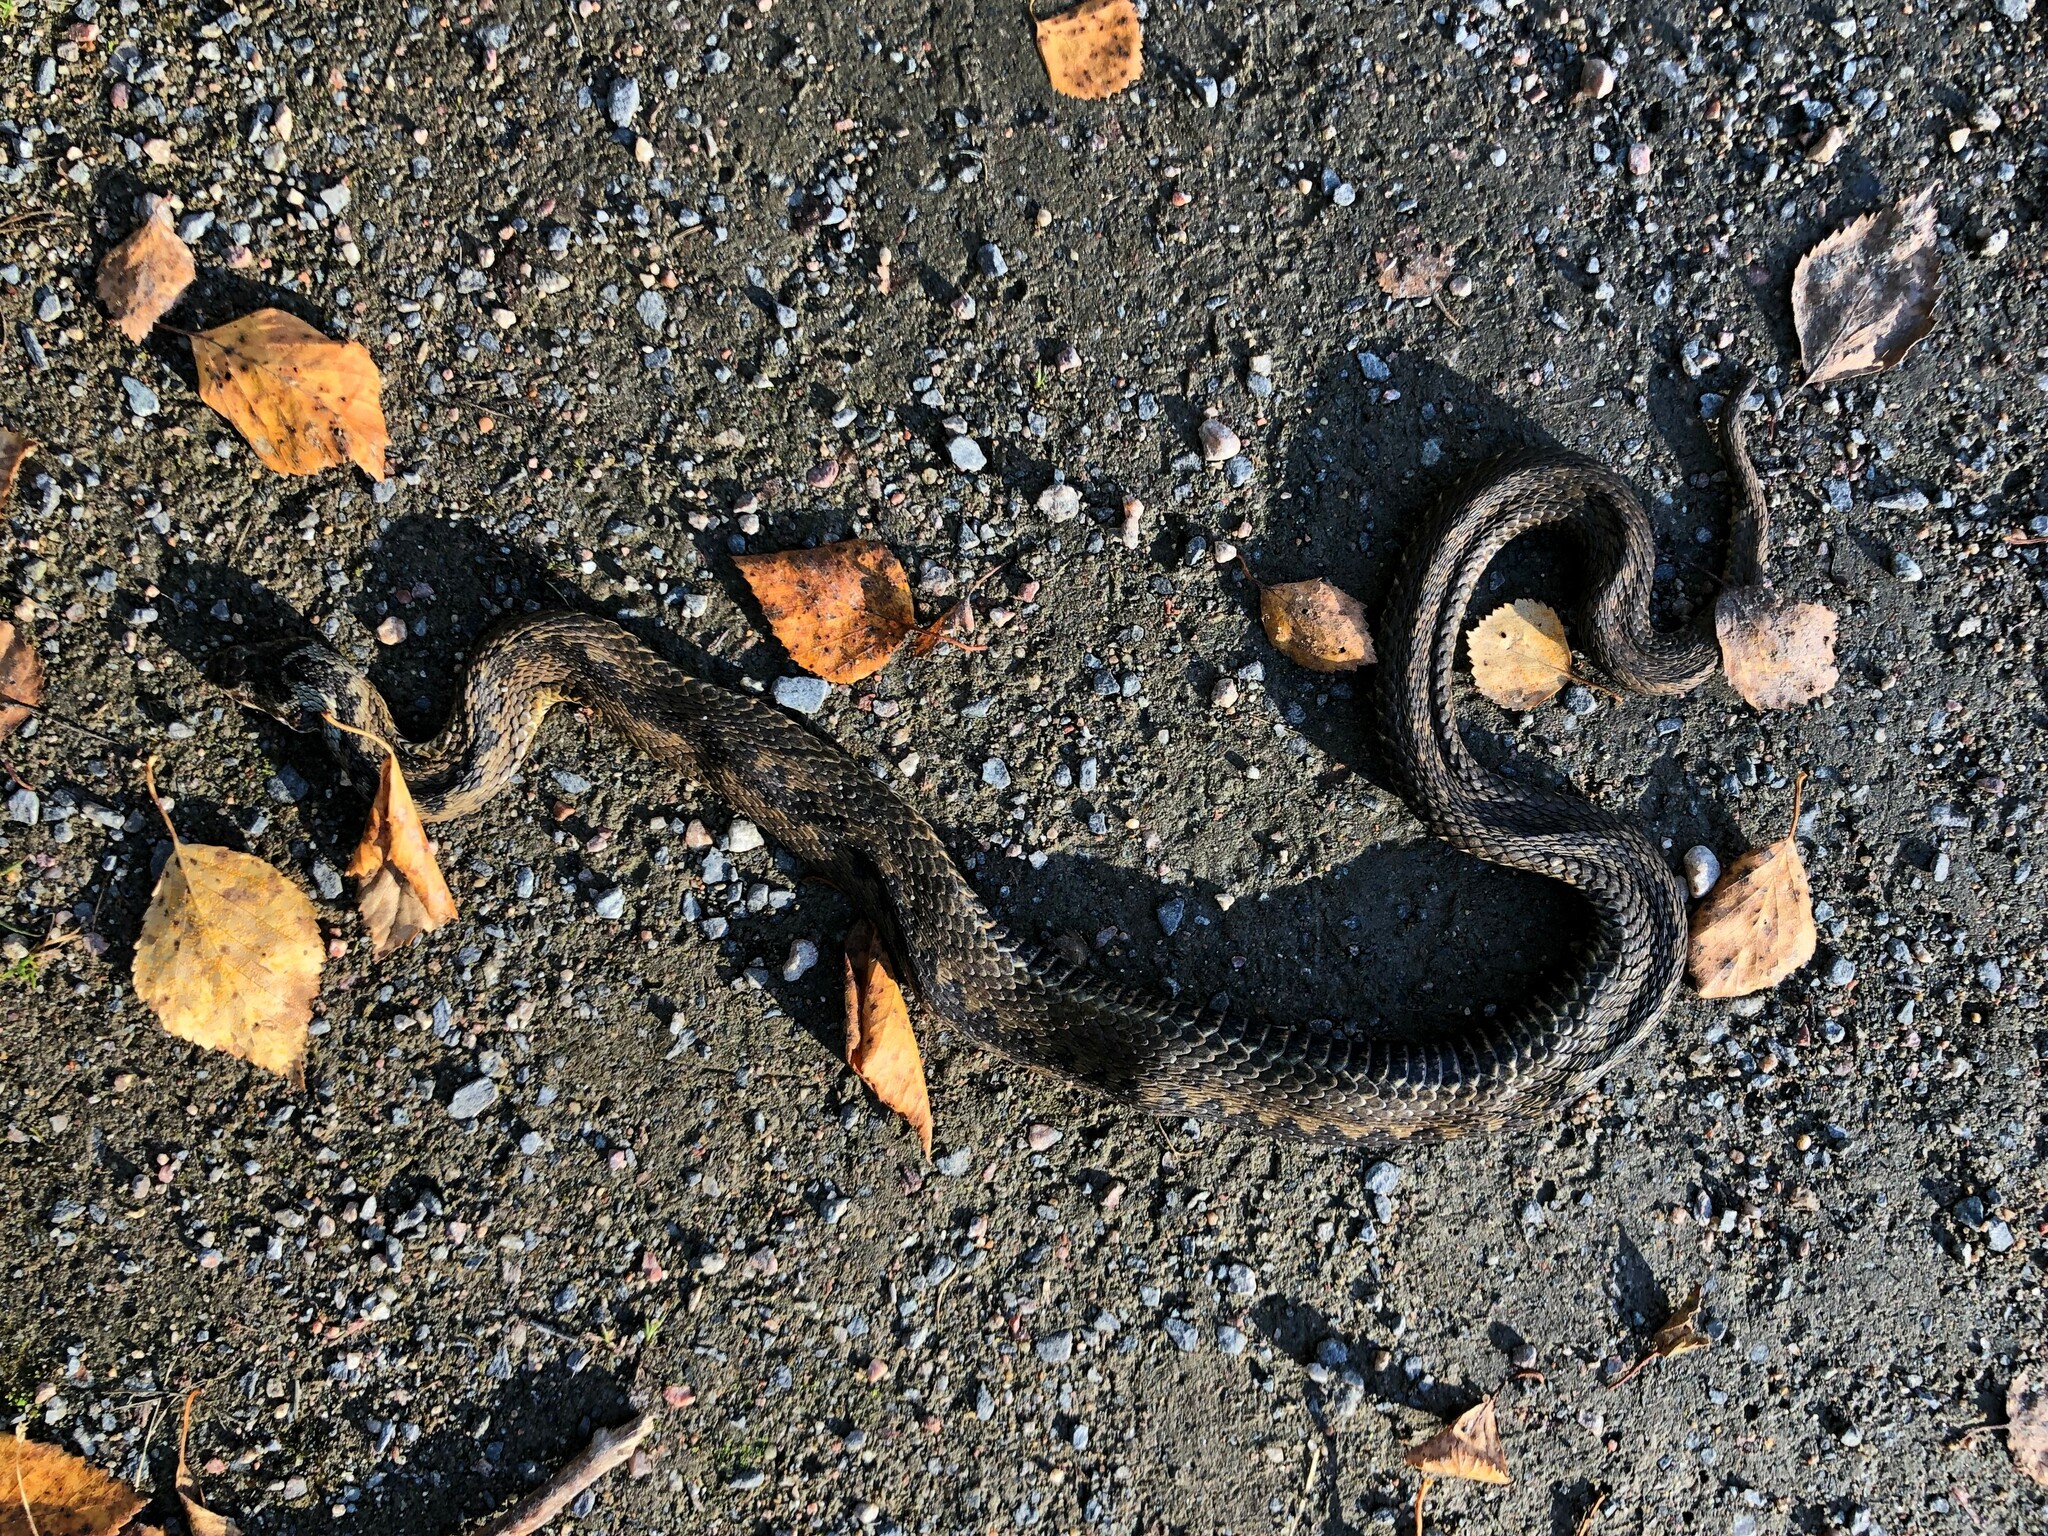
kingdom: Animalia
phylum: Chordata
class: Squamata
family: Viperidae
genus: Vipera
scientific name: Vipera berus
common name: Adder
